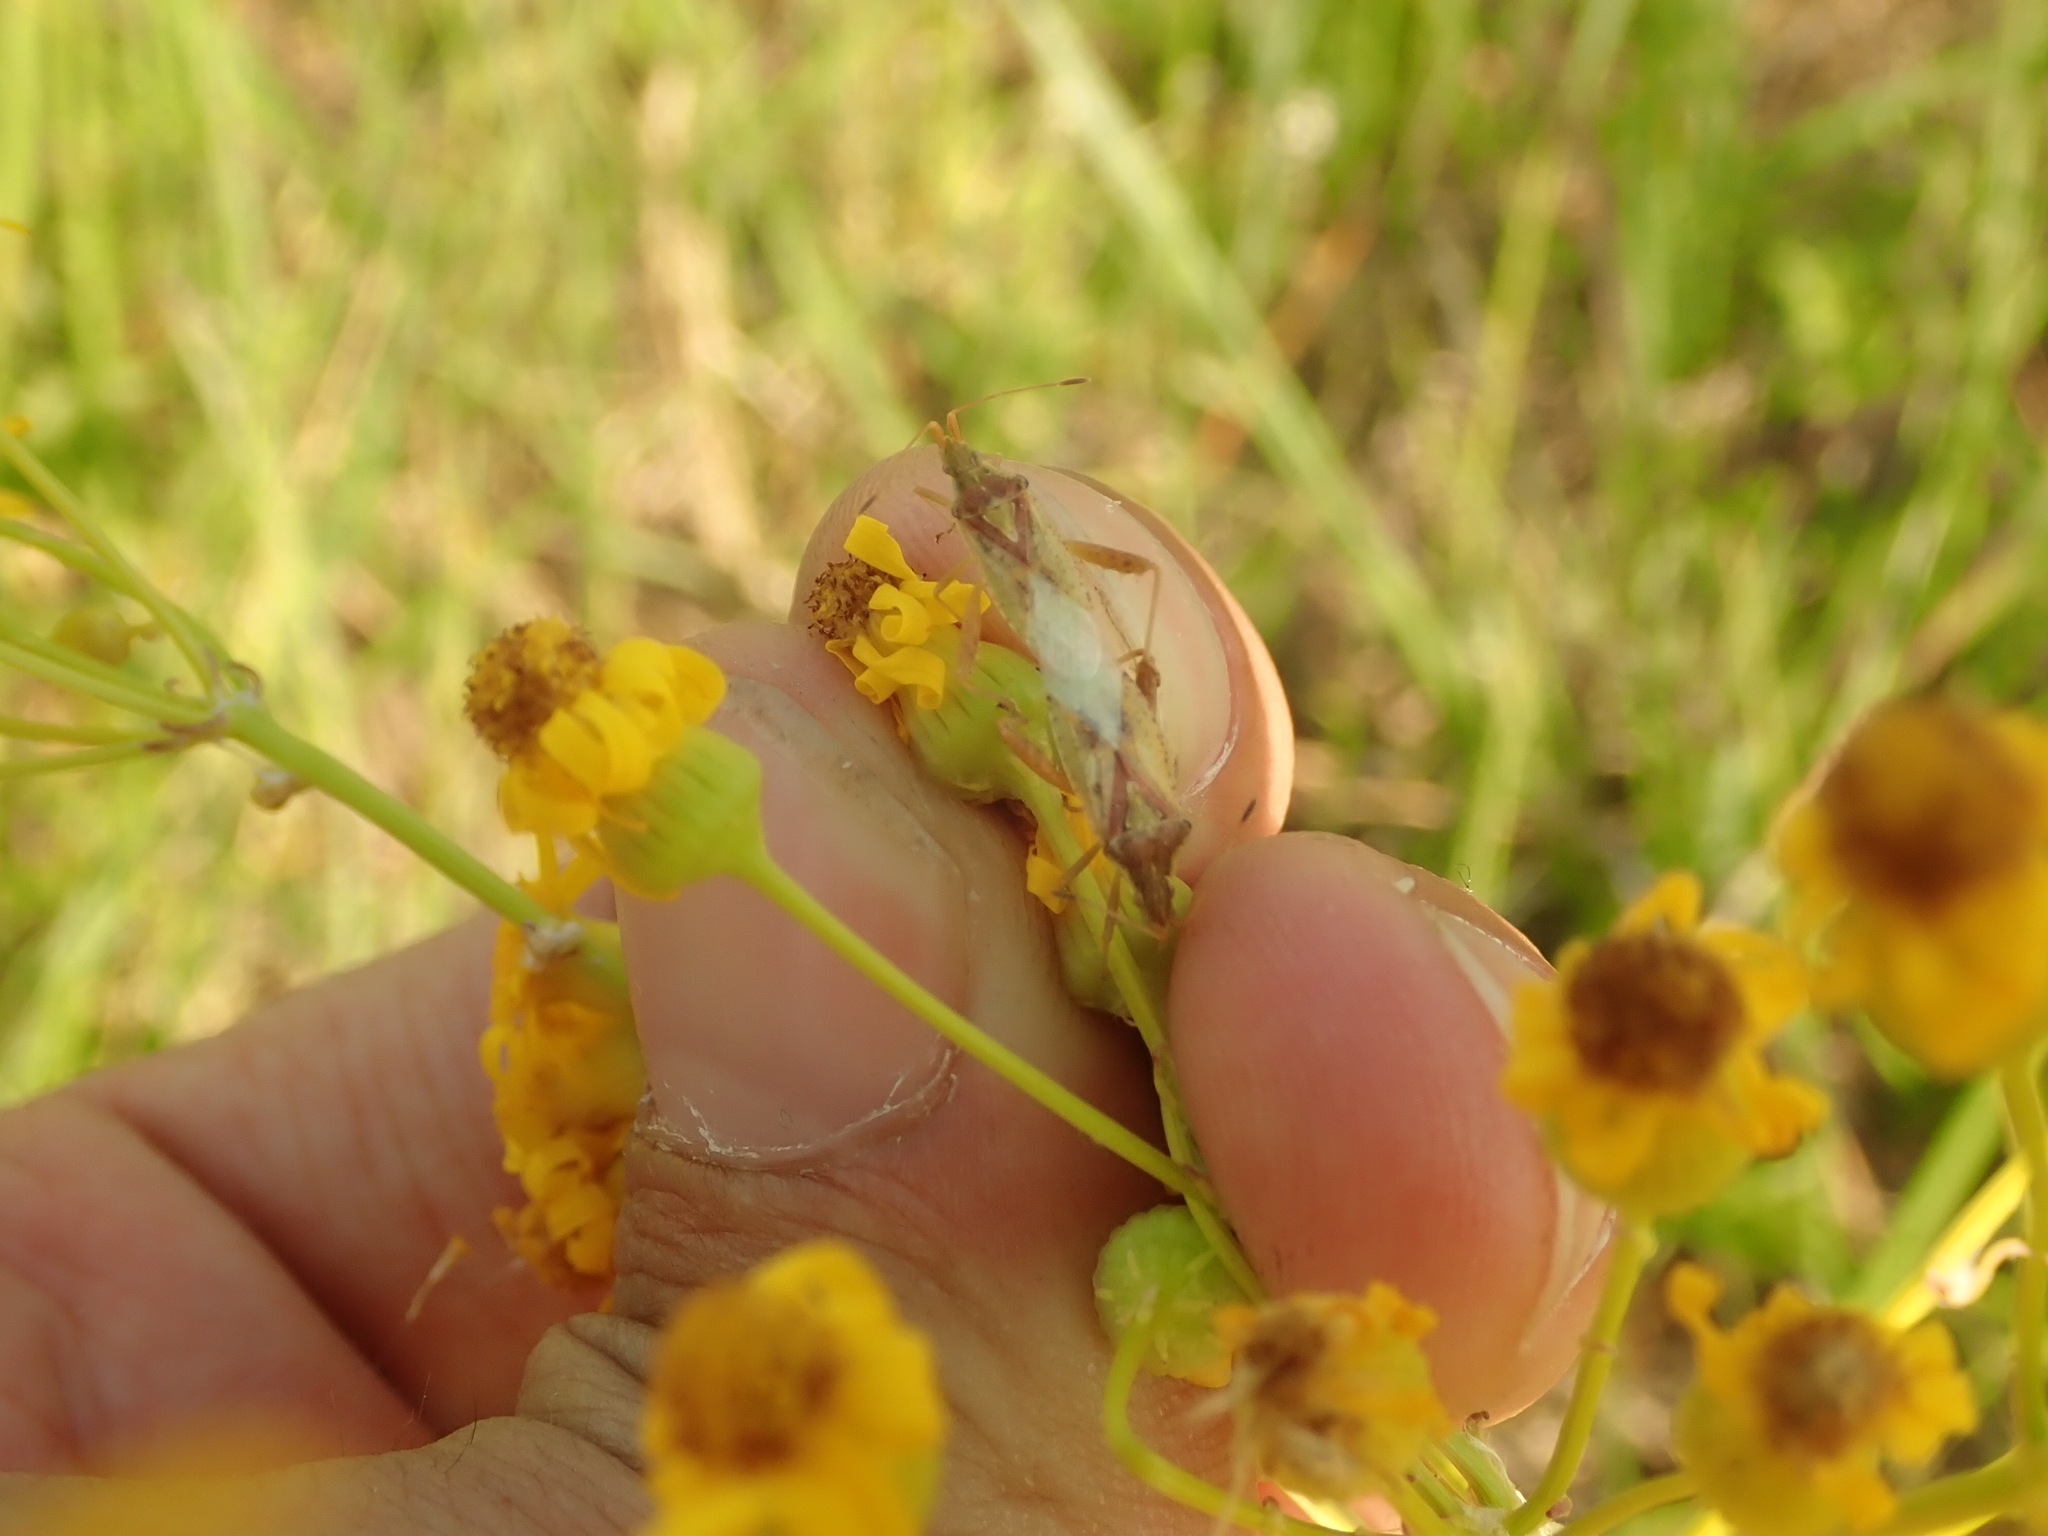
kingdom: Animalia
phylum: Arthropoda
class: Insecta
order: Hemiptera
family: Rhopalidae
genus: Harmostes
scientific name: Harmostes reflexulus
